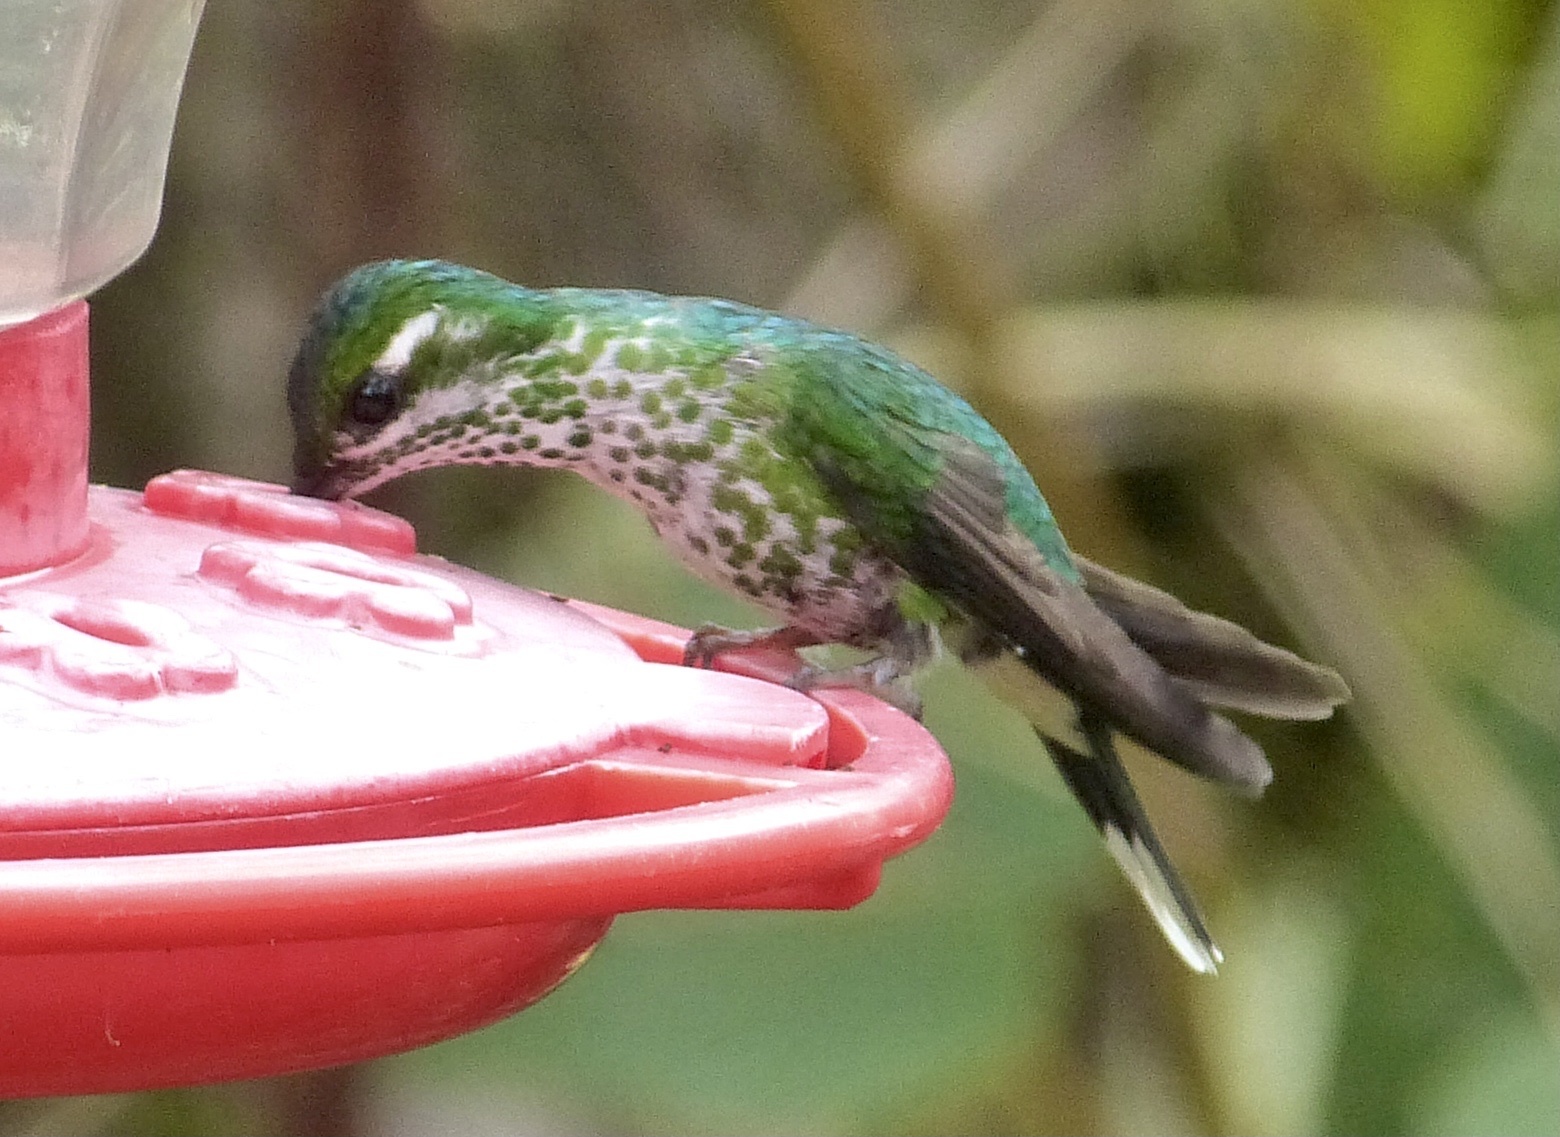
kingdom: Animalia
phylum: Chordata
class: Aves
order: Apodiformes
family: Trochilidae
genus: Ocreatus
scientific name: Ocreatus underwoodii
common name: Booted racket-tail
